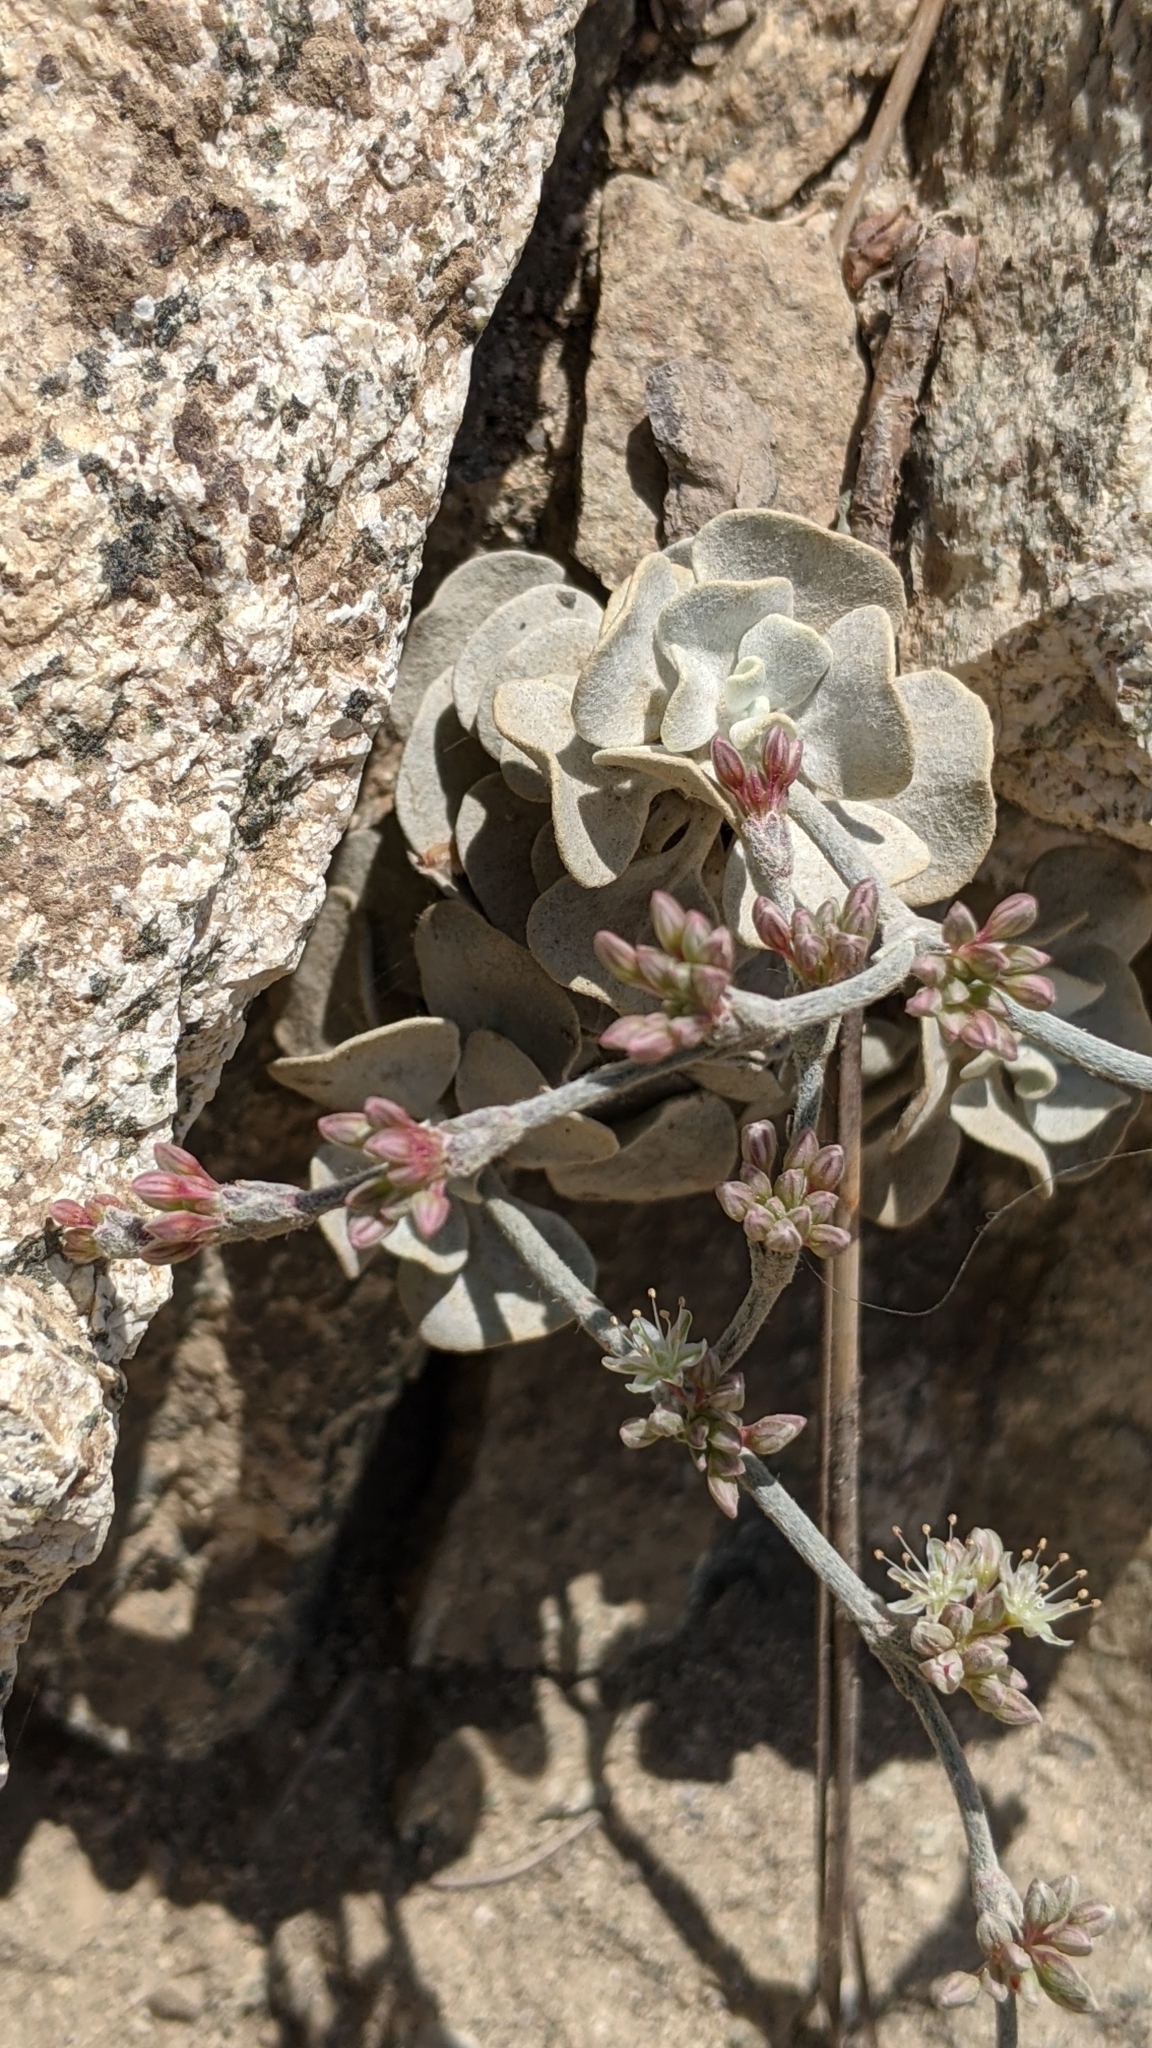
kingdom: Plantae
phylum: Tracheophyta
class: Magnoliopsida
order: Caryophyllales
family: Polygonaceae
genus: Eriogonum
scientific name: Eriogonum saxatile
